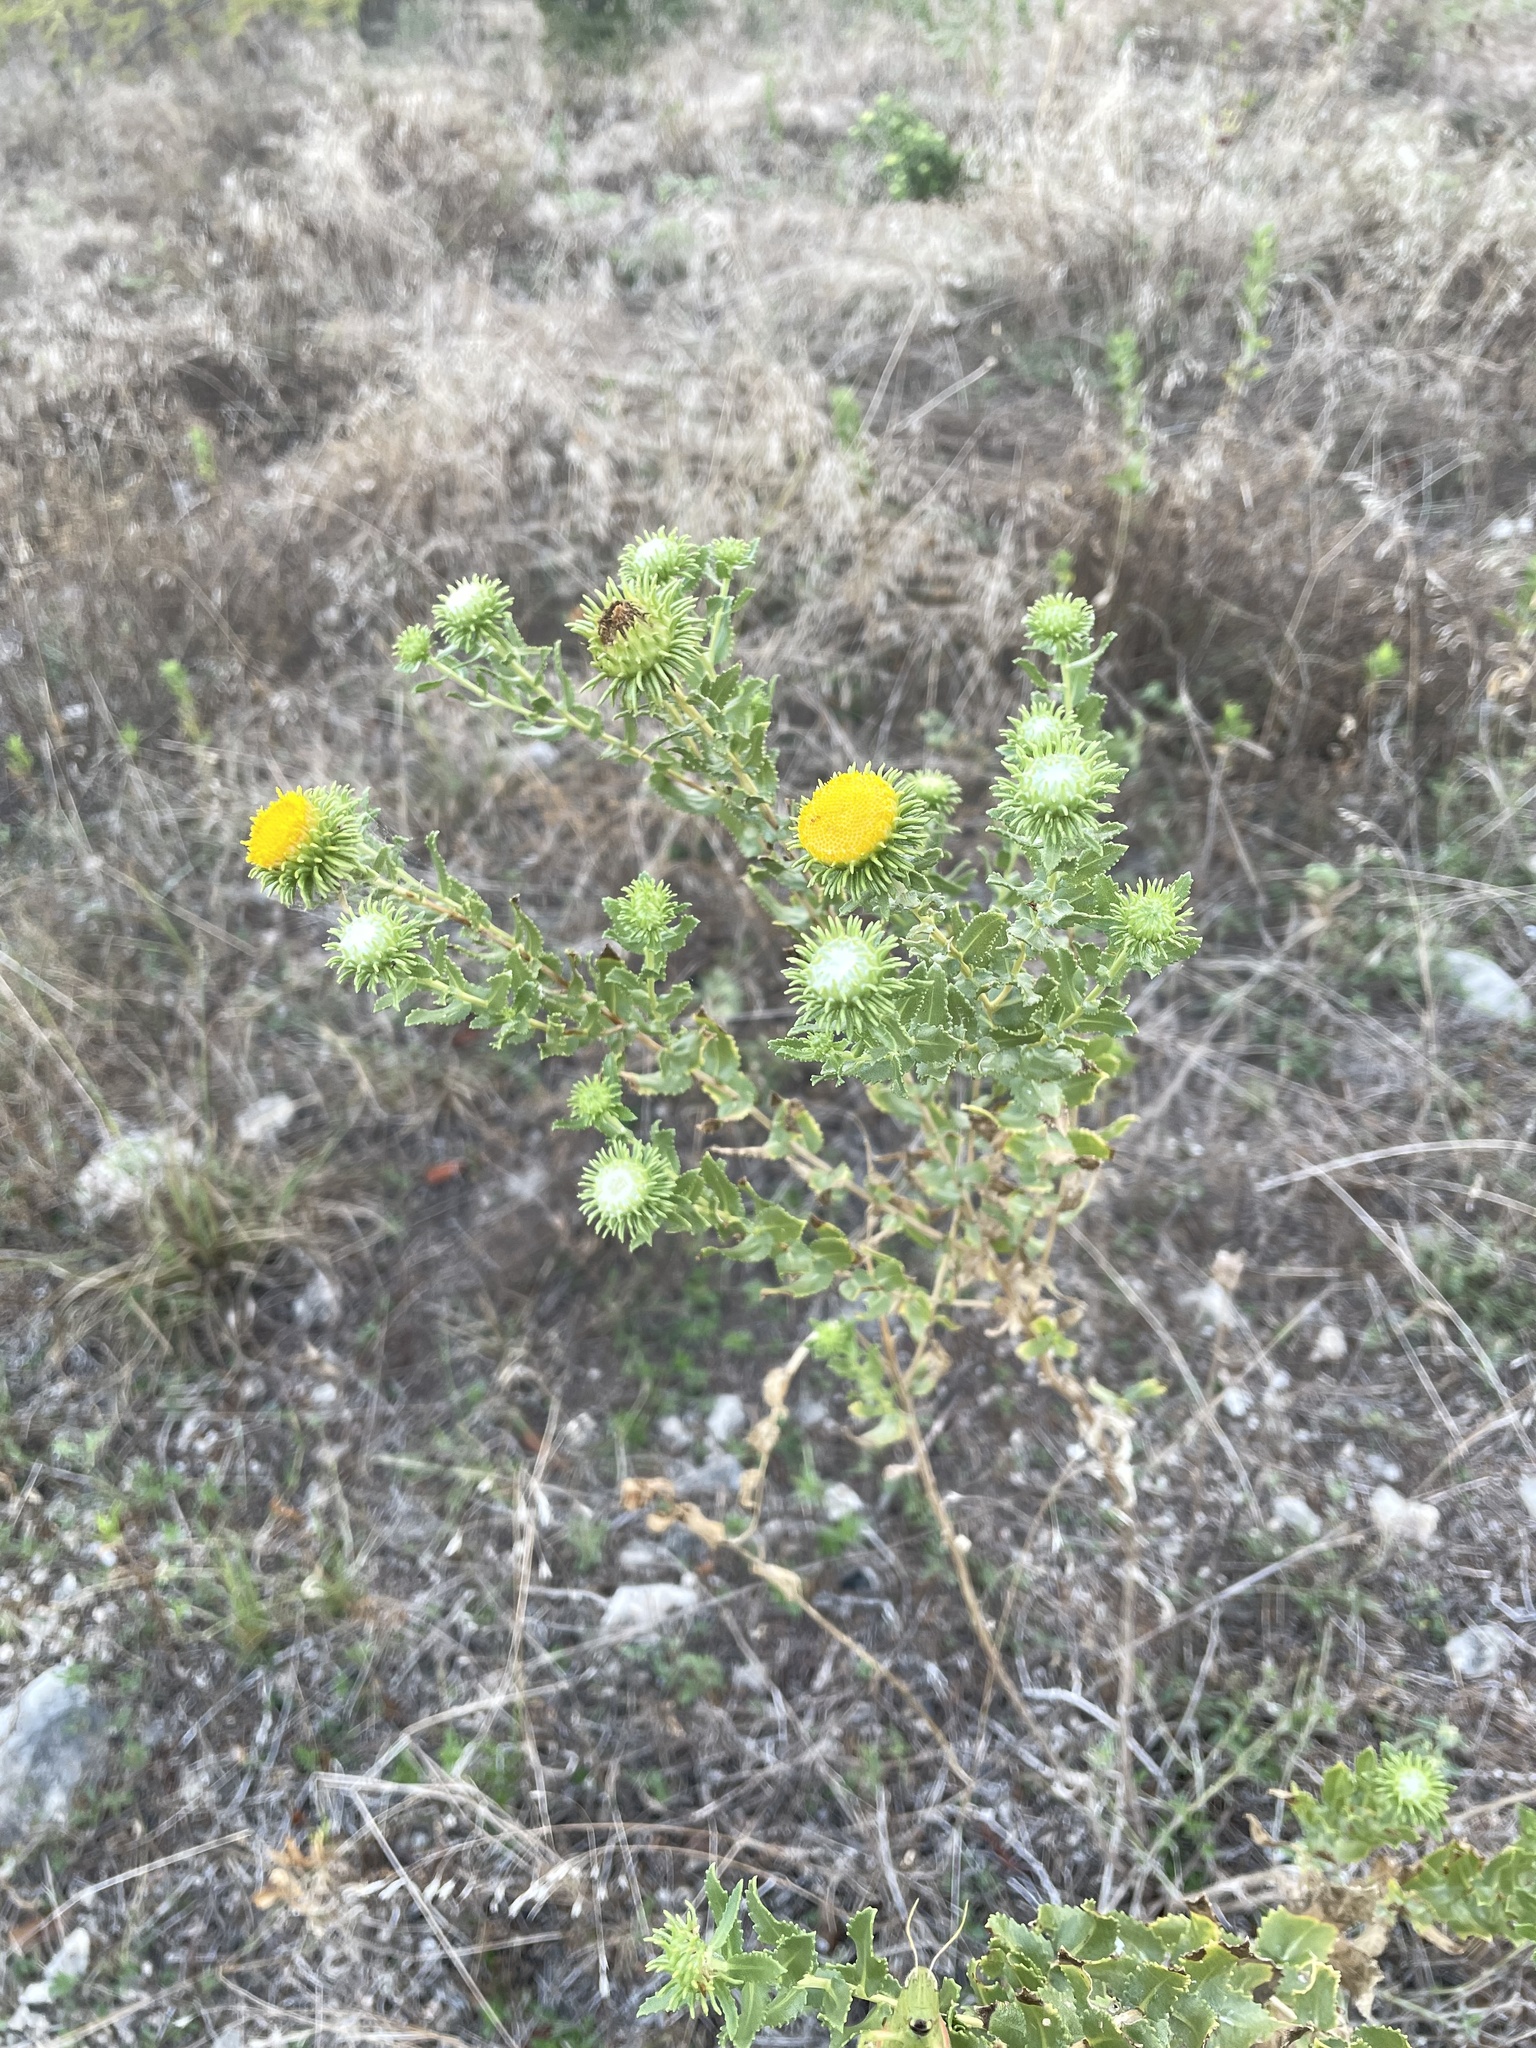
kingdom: Plantae
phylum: Tracheophyta
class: Magnoliopsida
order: Asterales
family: Asteraceae
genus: Grindelia
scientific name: Grindelia nuda
